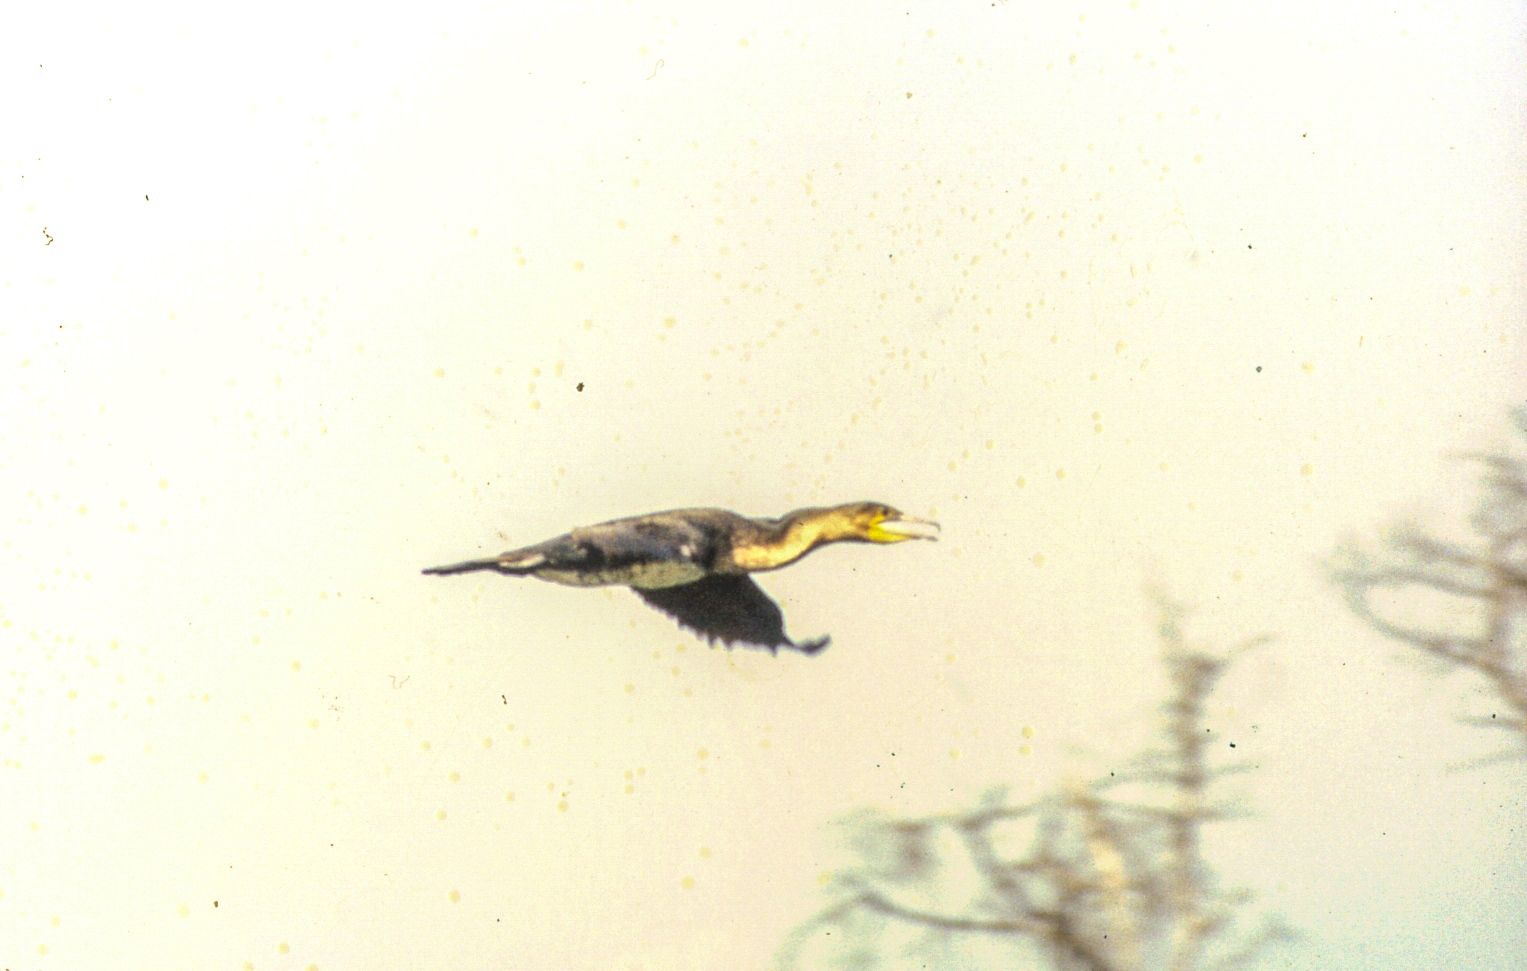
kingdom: Animalia
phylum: Chordata
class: Aves
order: Suliformes
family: Phalacrocoracidae
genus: Phalacrocorax
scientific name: Phalacrocorax carbo
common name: Great cormorant
